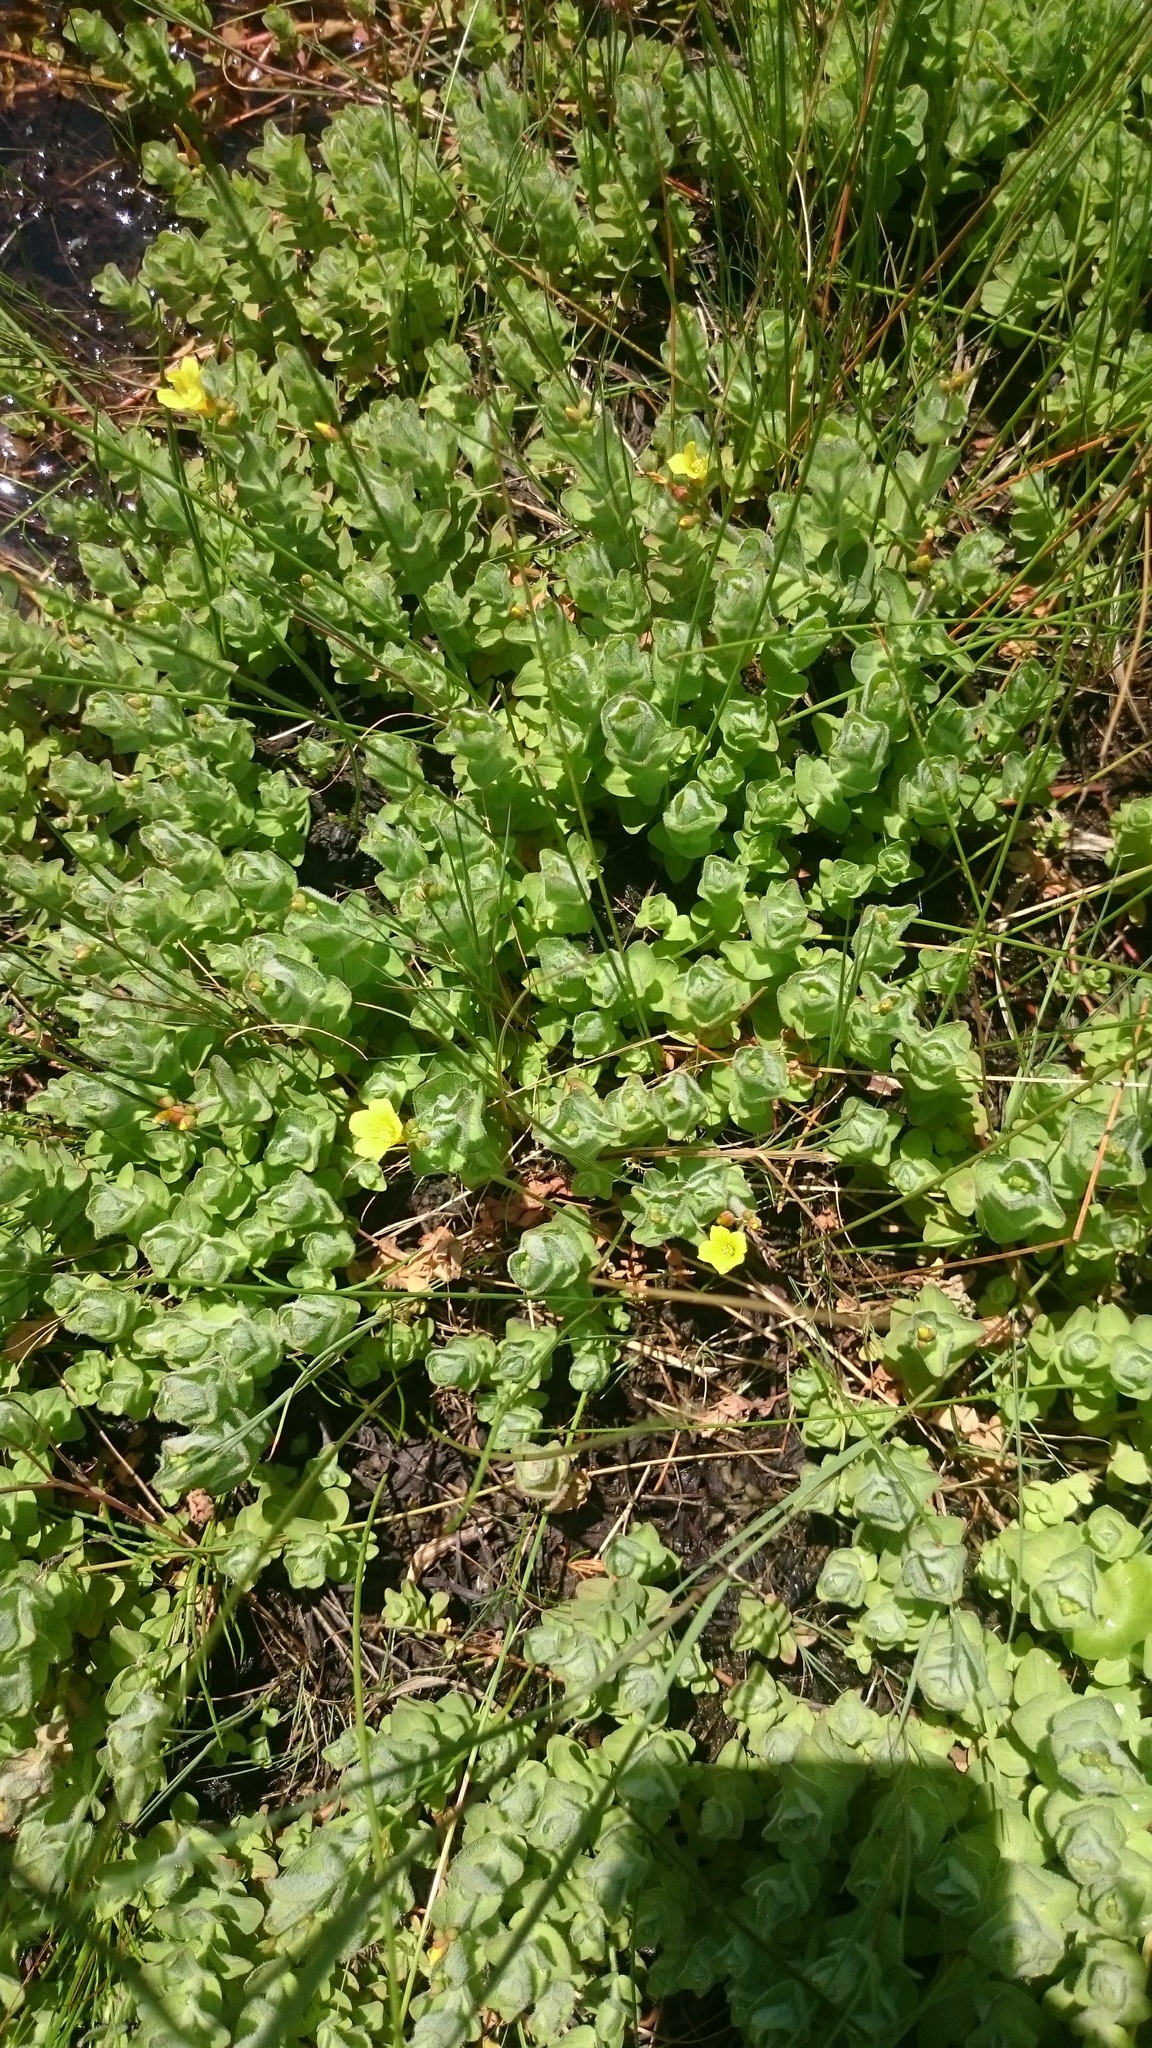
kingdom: Plantae
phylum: Tracheophyta
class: Magnoliopsida
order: Malpighiales
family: Hypericaceae
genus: Hypericum
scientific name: Hypericum elodes
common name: Marsh st. john's-wort
